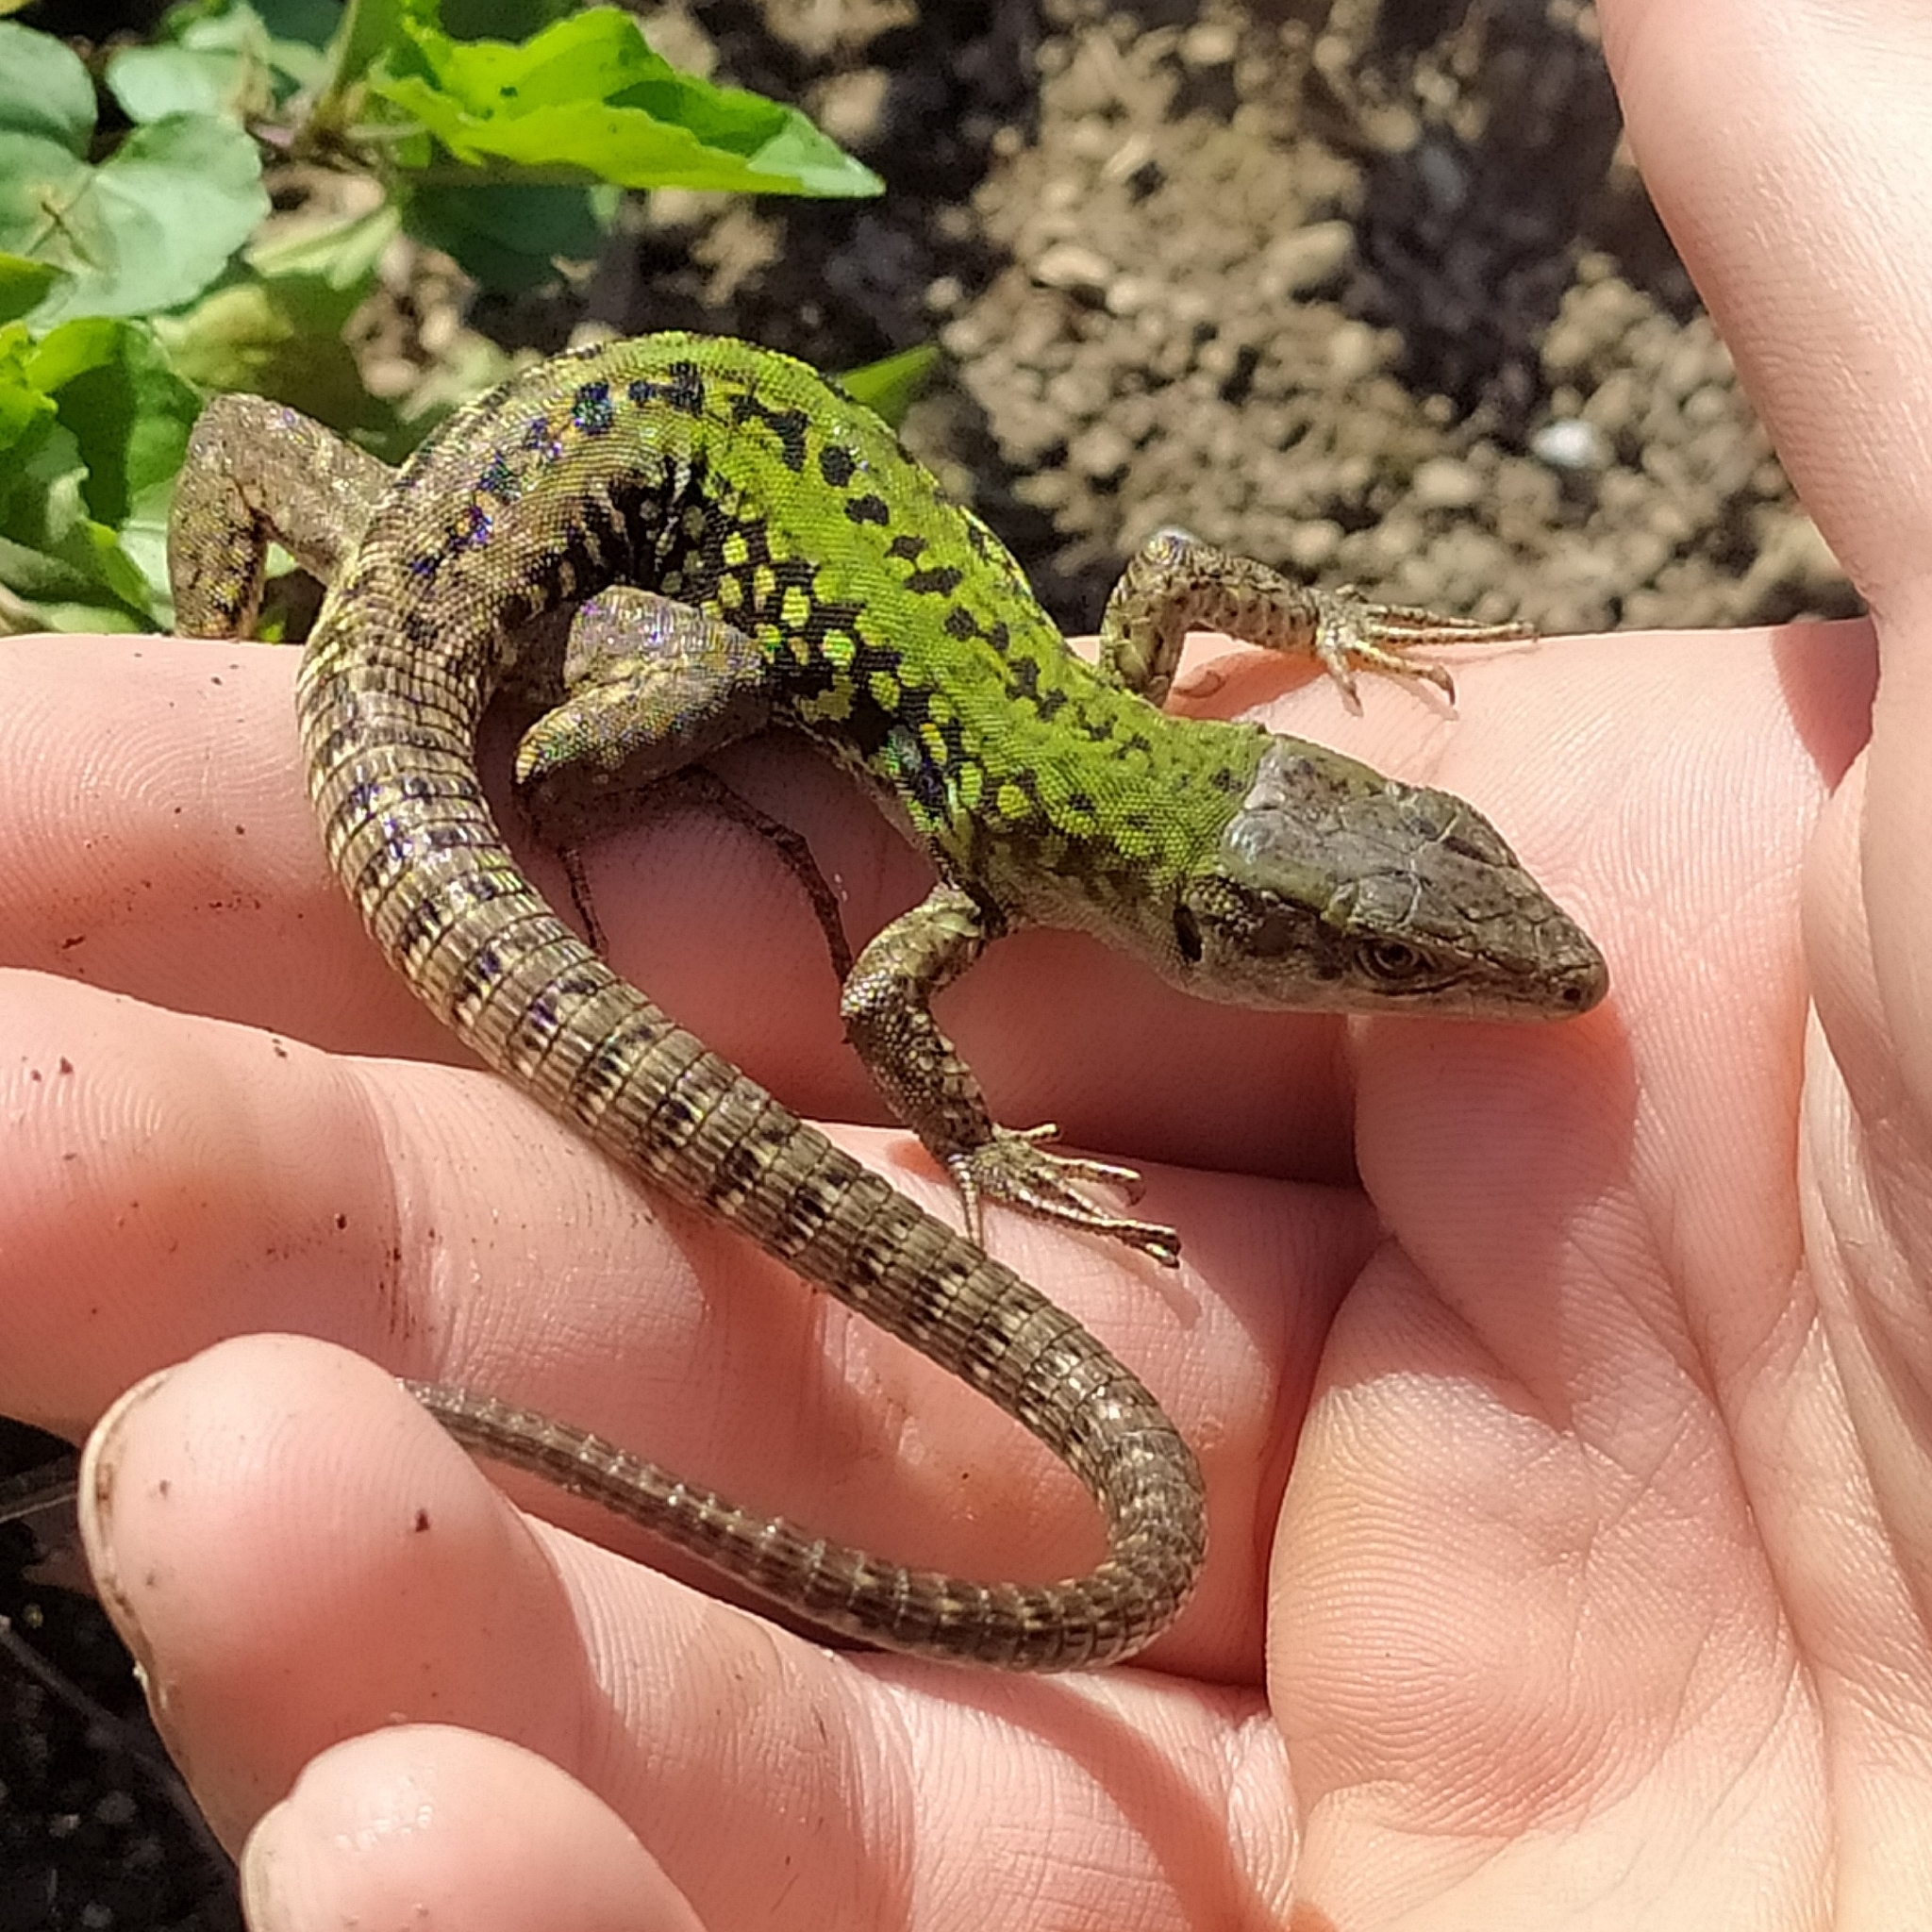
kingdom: Animalia
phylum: Chordata
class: Squamata
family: Lacertidae
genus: Podarcis
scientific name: Podarcis siculus
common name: Italian wall lizard
